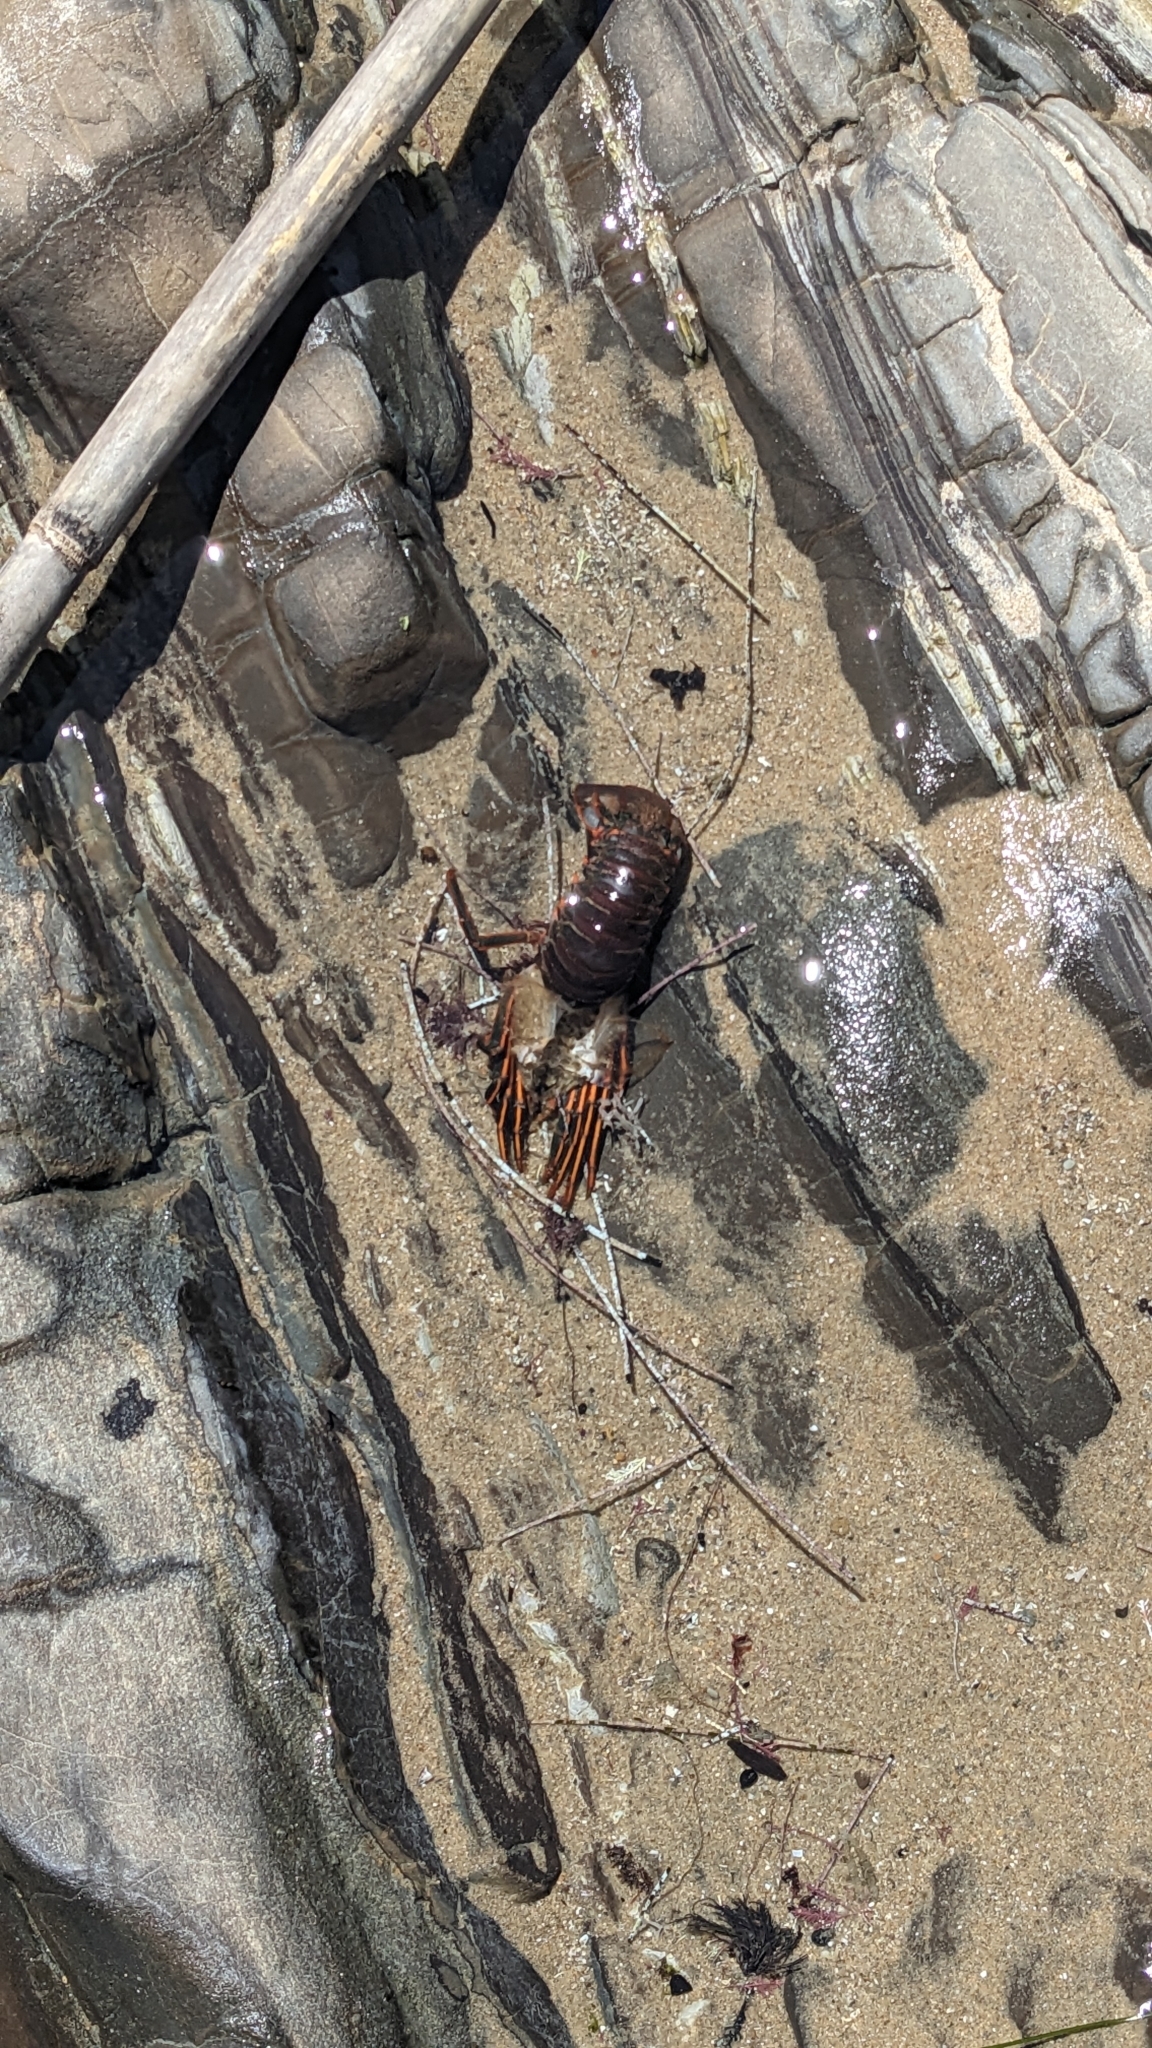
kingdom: Animalia
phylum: Arthropoda
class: Malacostraca
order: Decapoda
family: Palinuridae
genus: Panulirus
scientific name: Panulirus interruptus
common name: California spiny lobster
